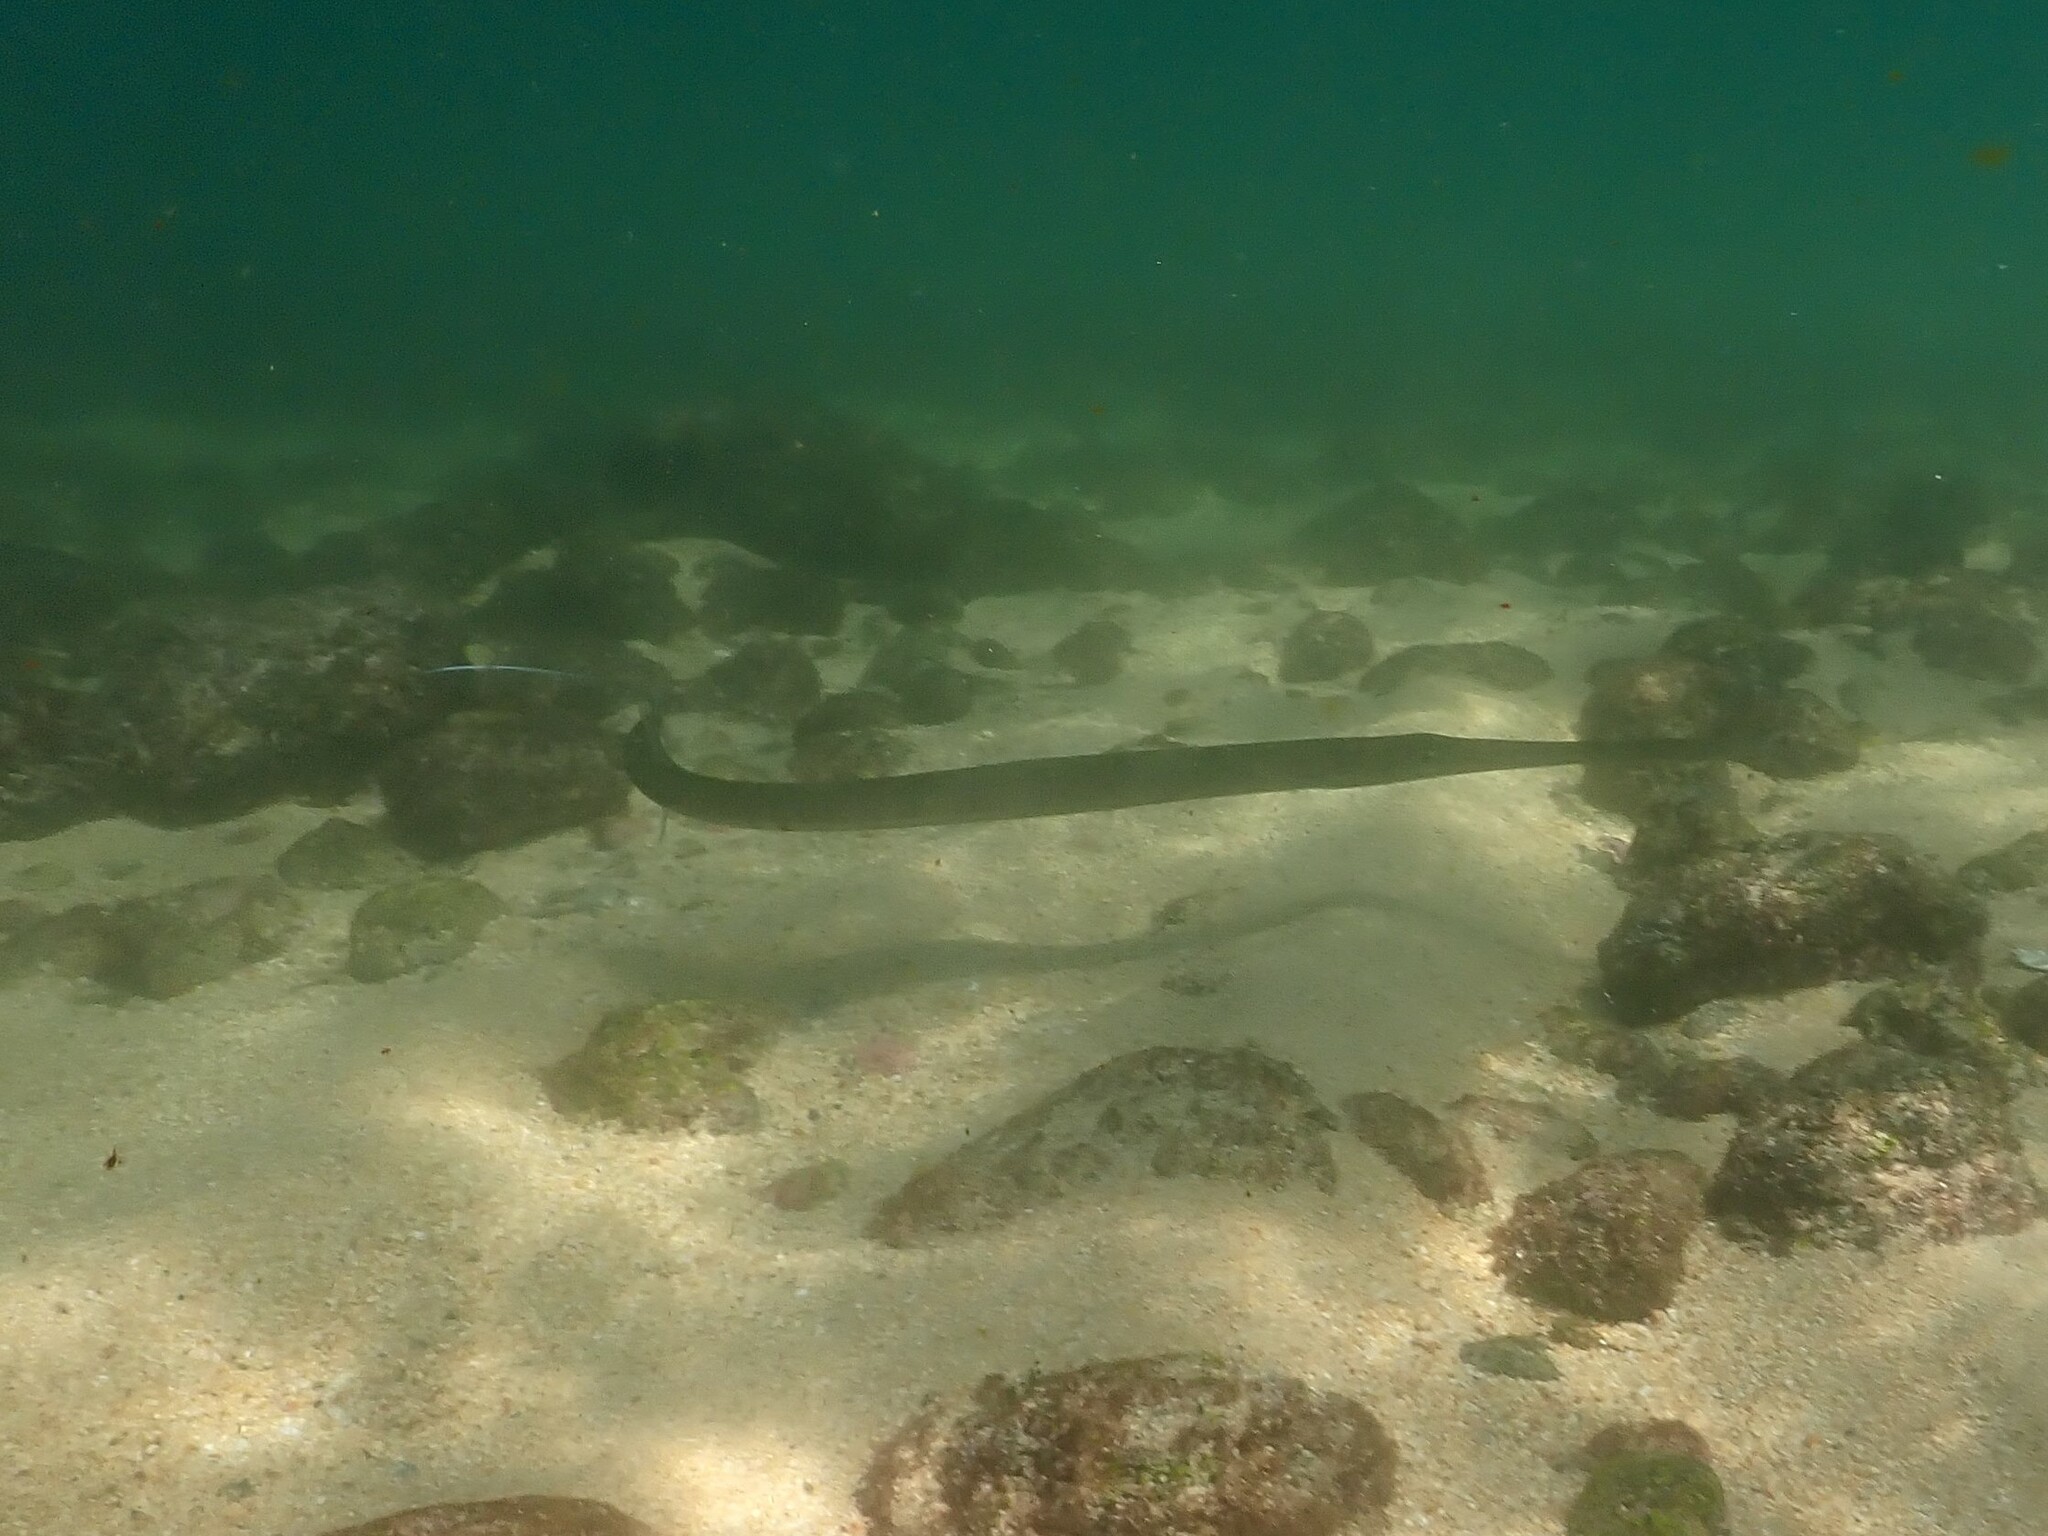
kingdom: Animalia
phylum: Chordata
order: Syngnathiformes
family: Fistulariidae
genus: Fistularia
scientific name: Fistularia commersonii
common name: Bluespotted cornetfish
